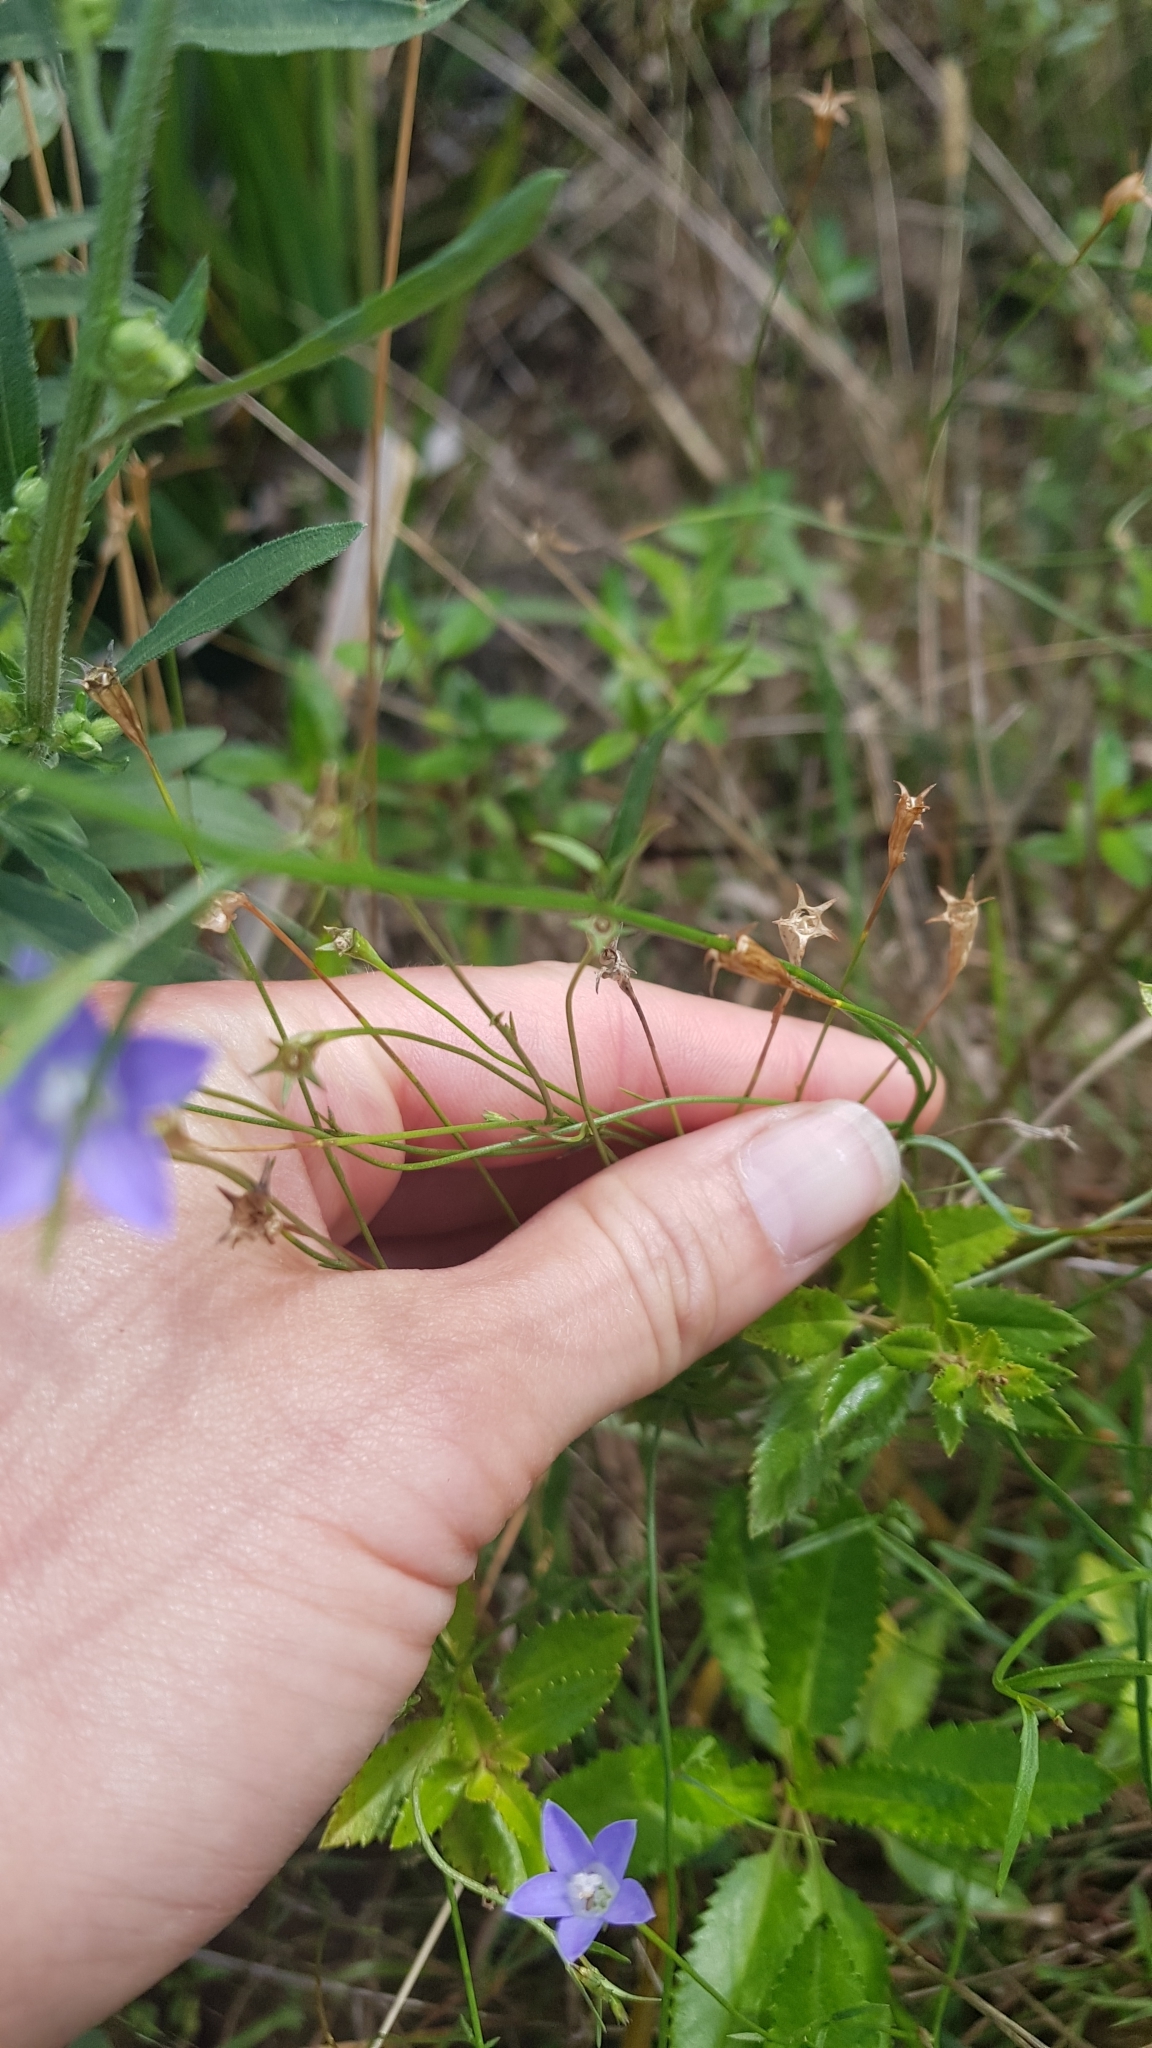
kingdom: Plantae
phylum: Tracheophyta
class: Magnoliopsida
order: Asterales
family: Campanulaceae
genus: Wahlenbergia
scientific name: Wahlenbergia violacea
